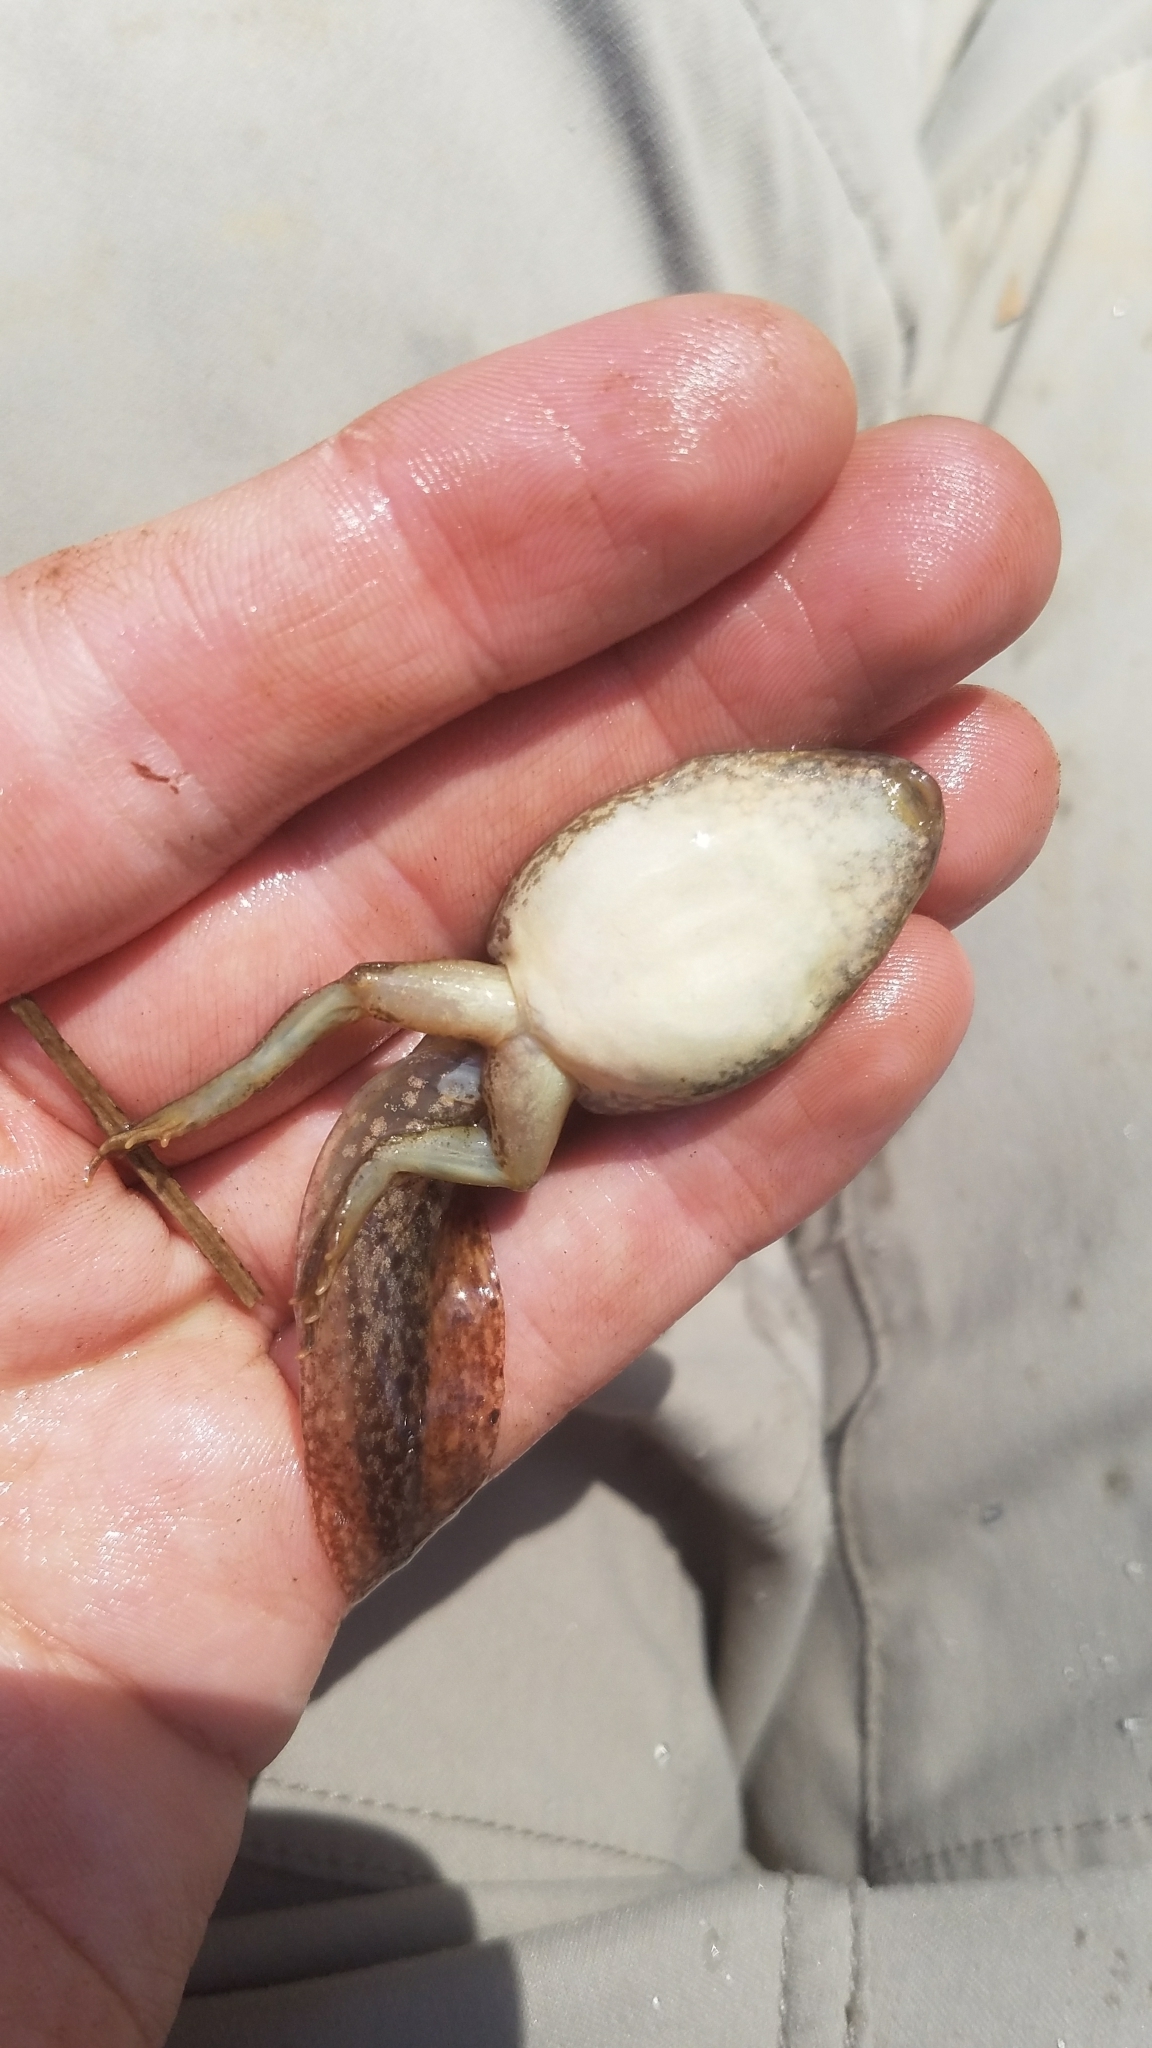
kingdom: Animalia
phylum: Chordata
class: Amphibia
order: Anura
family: Ranidae
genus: Lithobates
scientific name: Lithobates clamitans
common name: Green frog
